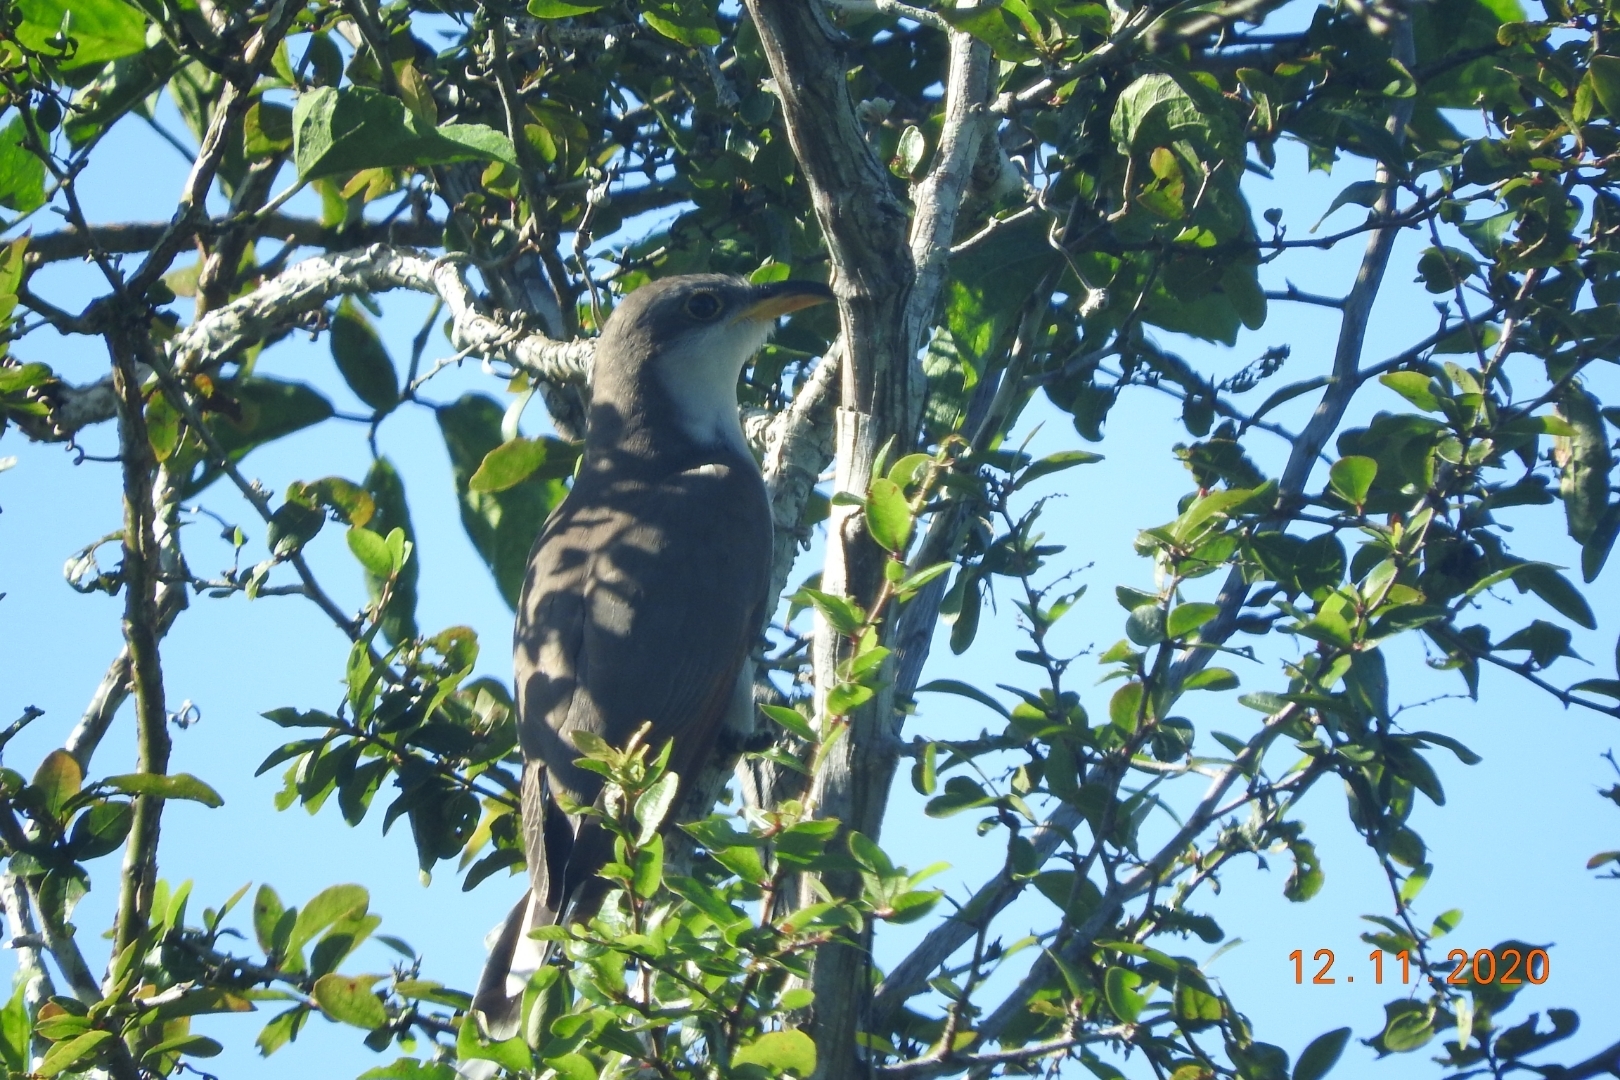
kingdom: Animalia
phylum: Chordata
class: Aves
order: Cuculiformes
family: Cuculidae
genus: Coccyzus
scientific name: Coccyzus americanus
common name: Yellow-billed cuckoo
